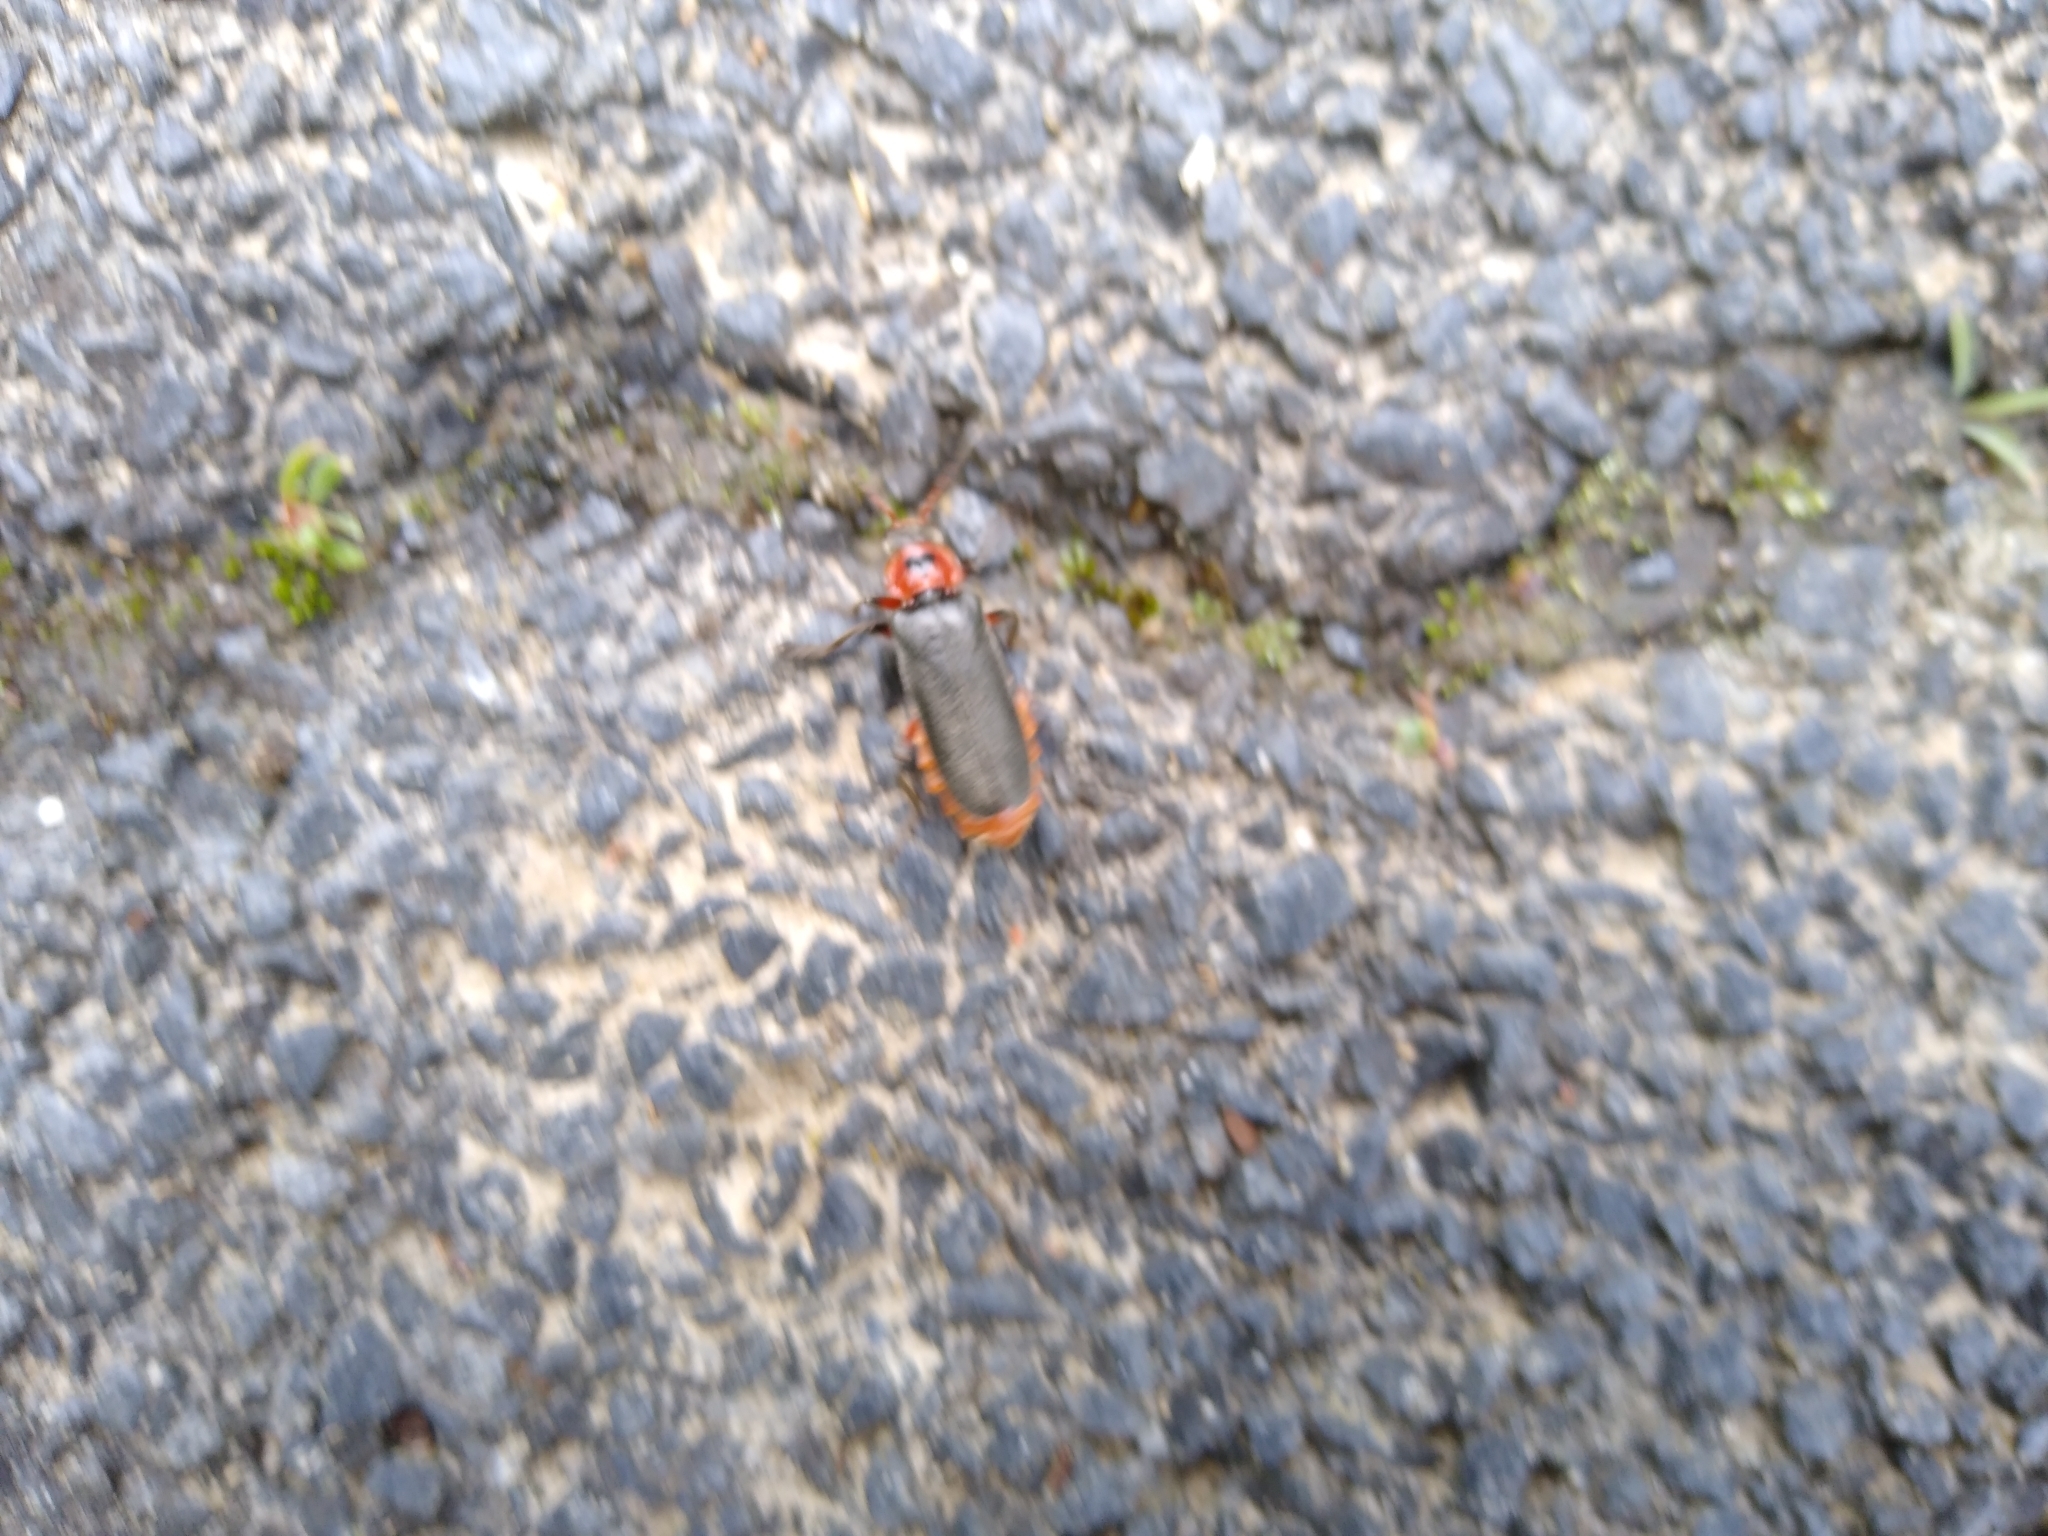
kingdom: Animalia
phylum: Arthropoda
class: Insecta
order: Coleoptera
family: Cantharidae
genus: Cantharis
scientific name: Cantharis rustica
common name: Soldier beetle
